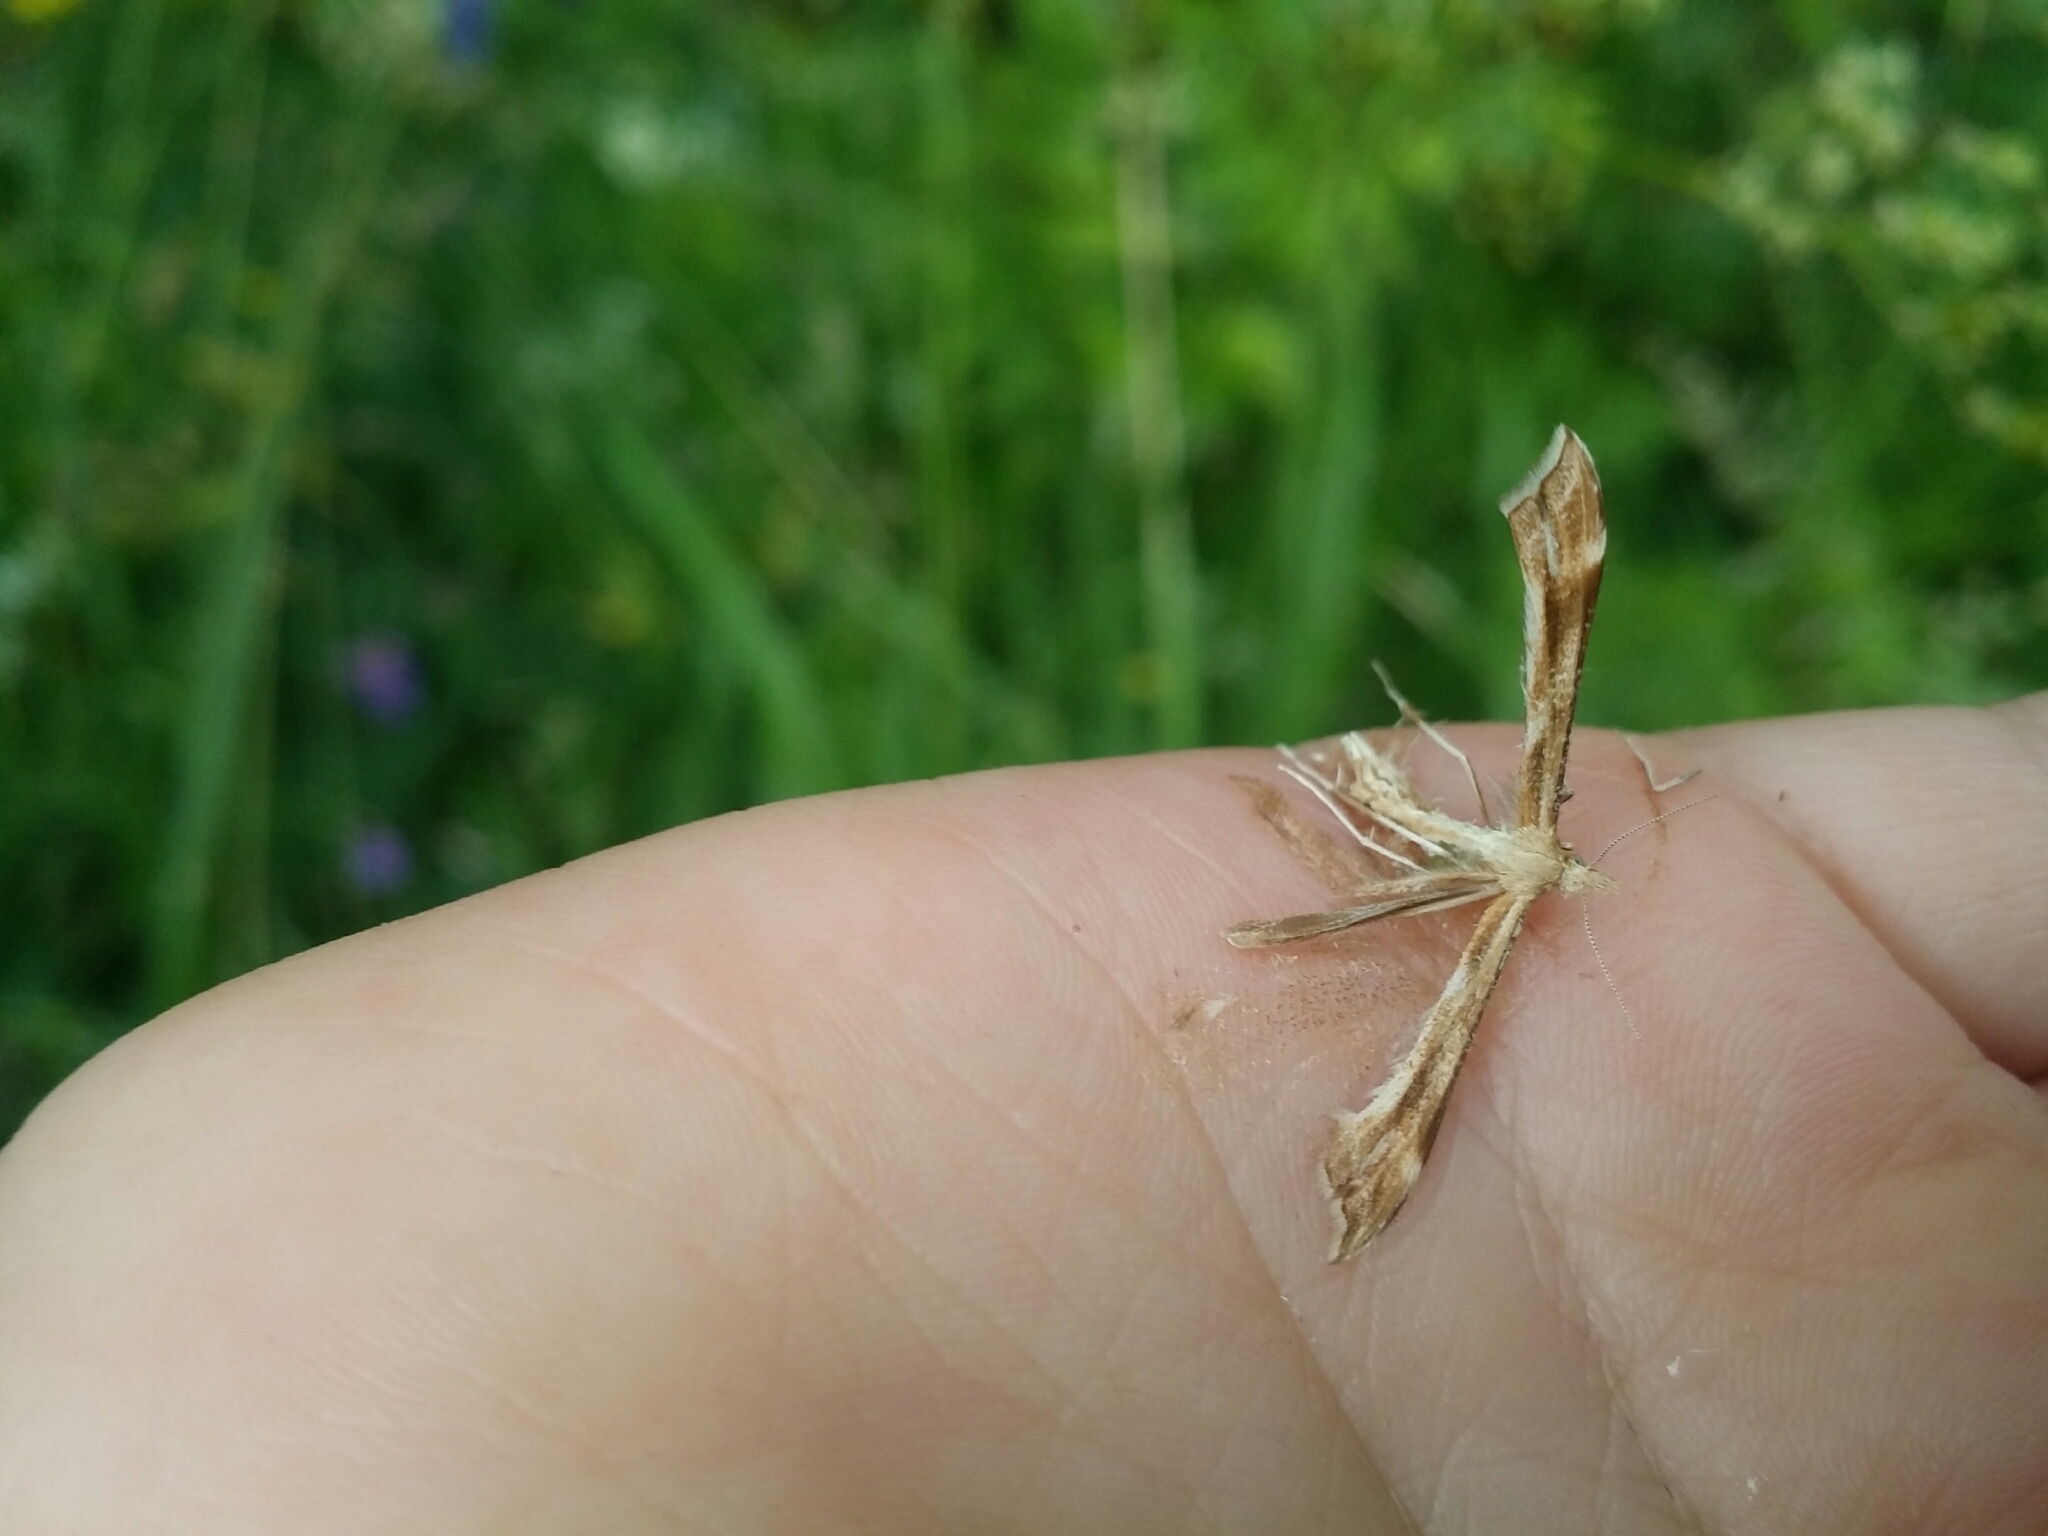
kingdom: Animalia
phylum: Arthropoda
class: Insecta
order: Lepidoptera
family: Pterophoridae
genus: Gillmeria
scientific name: Gillmeria pallidactyla
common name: Yarrow plume
